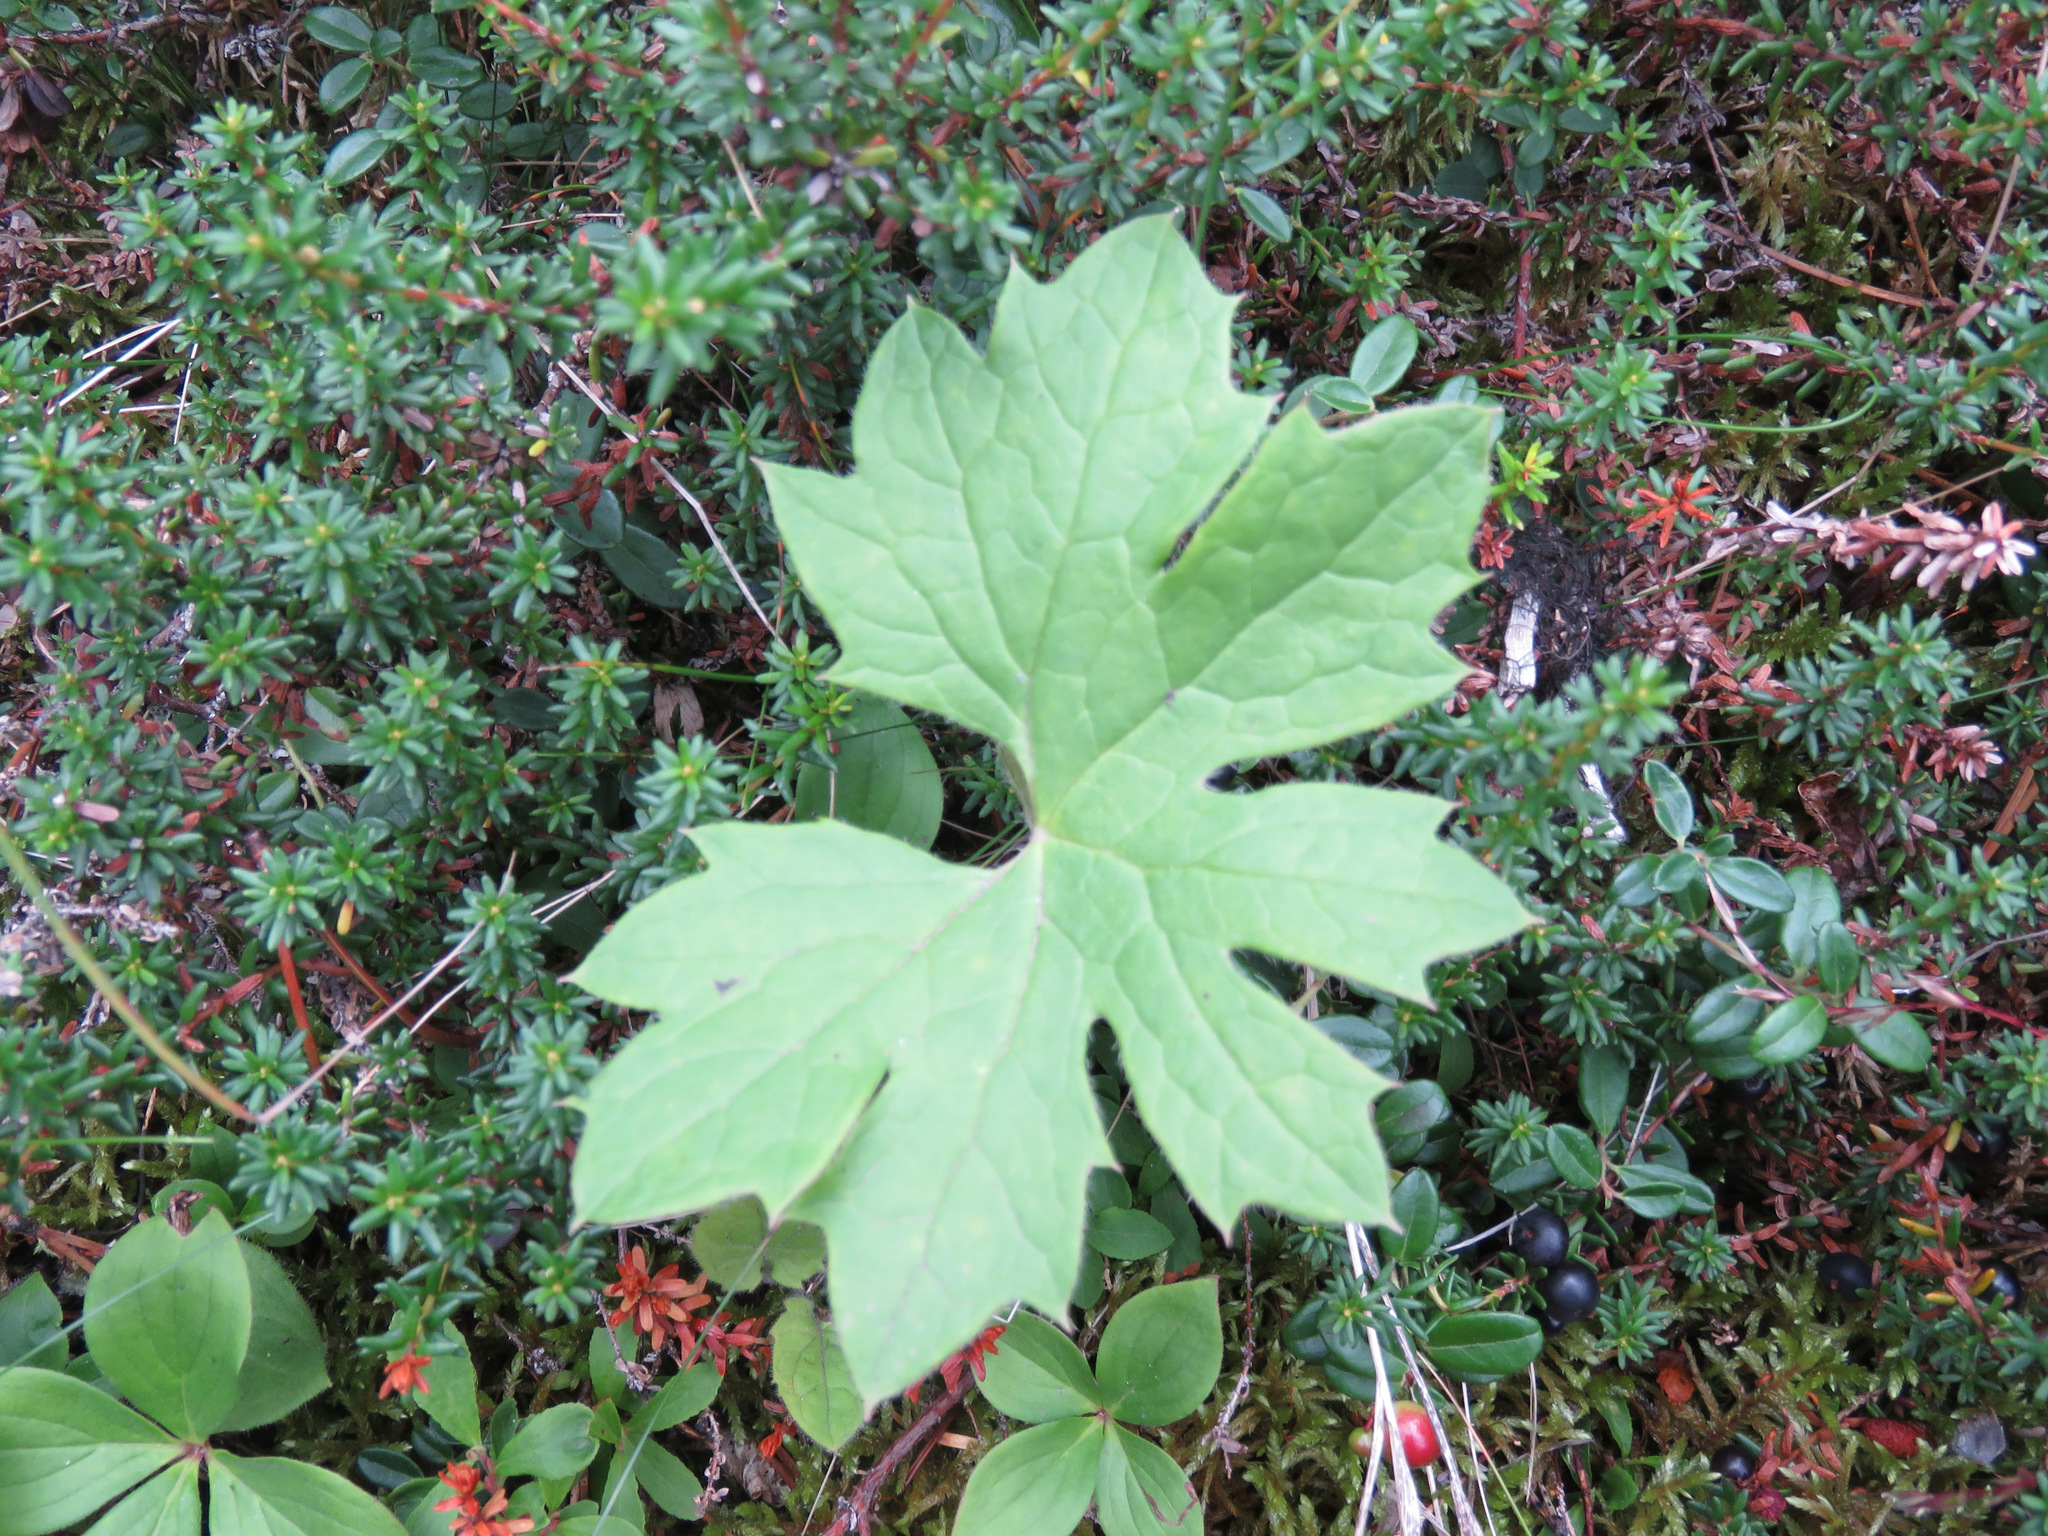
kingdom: Plantae
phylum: Tracheophyta
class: Magnoliopsida
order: Asterales
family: Asteraceae
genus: Petasites
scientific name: Petasites frigidus
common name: Arctic butterbur
